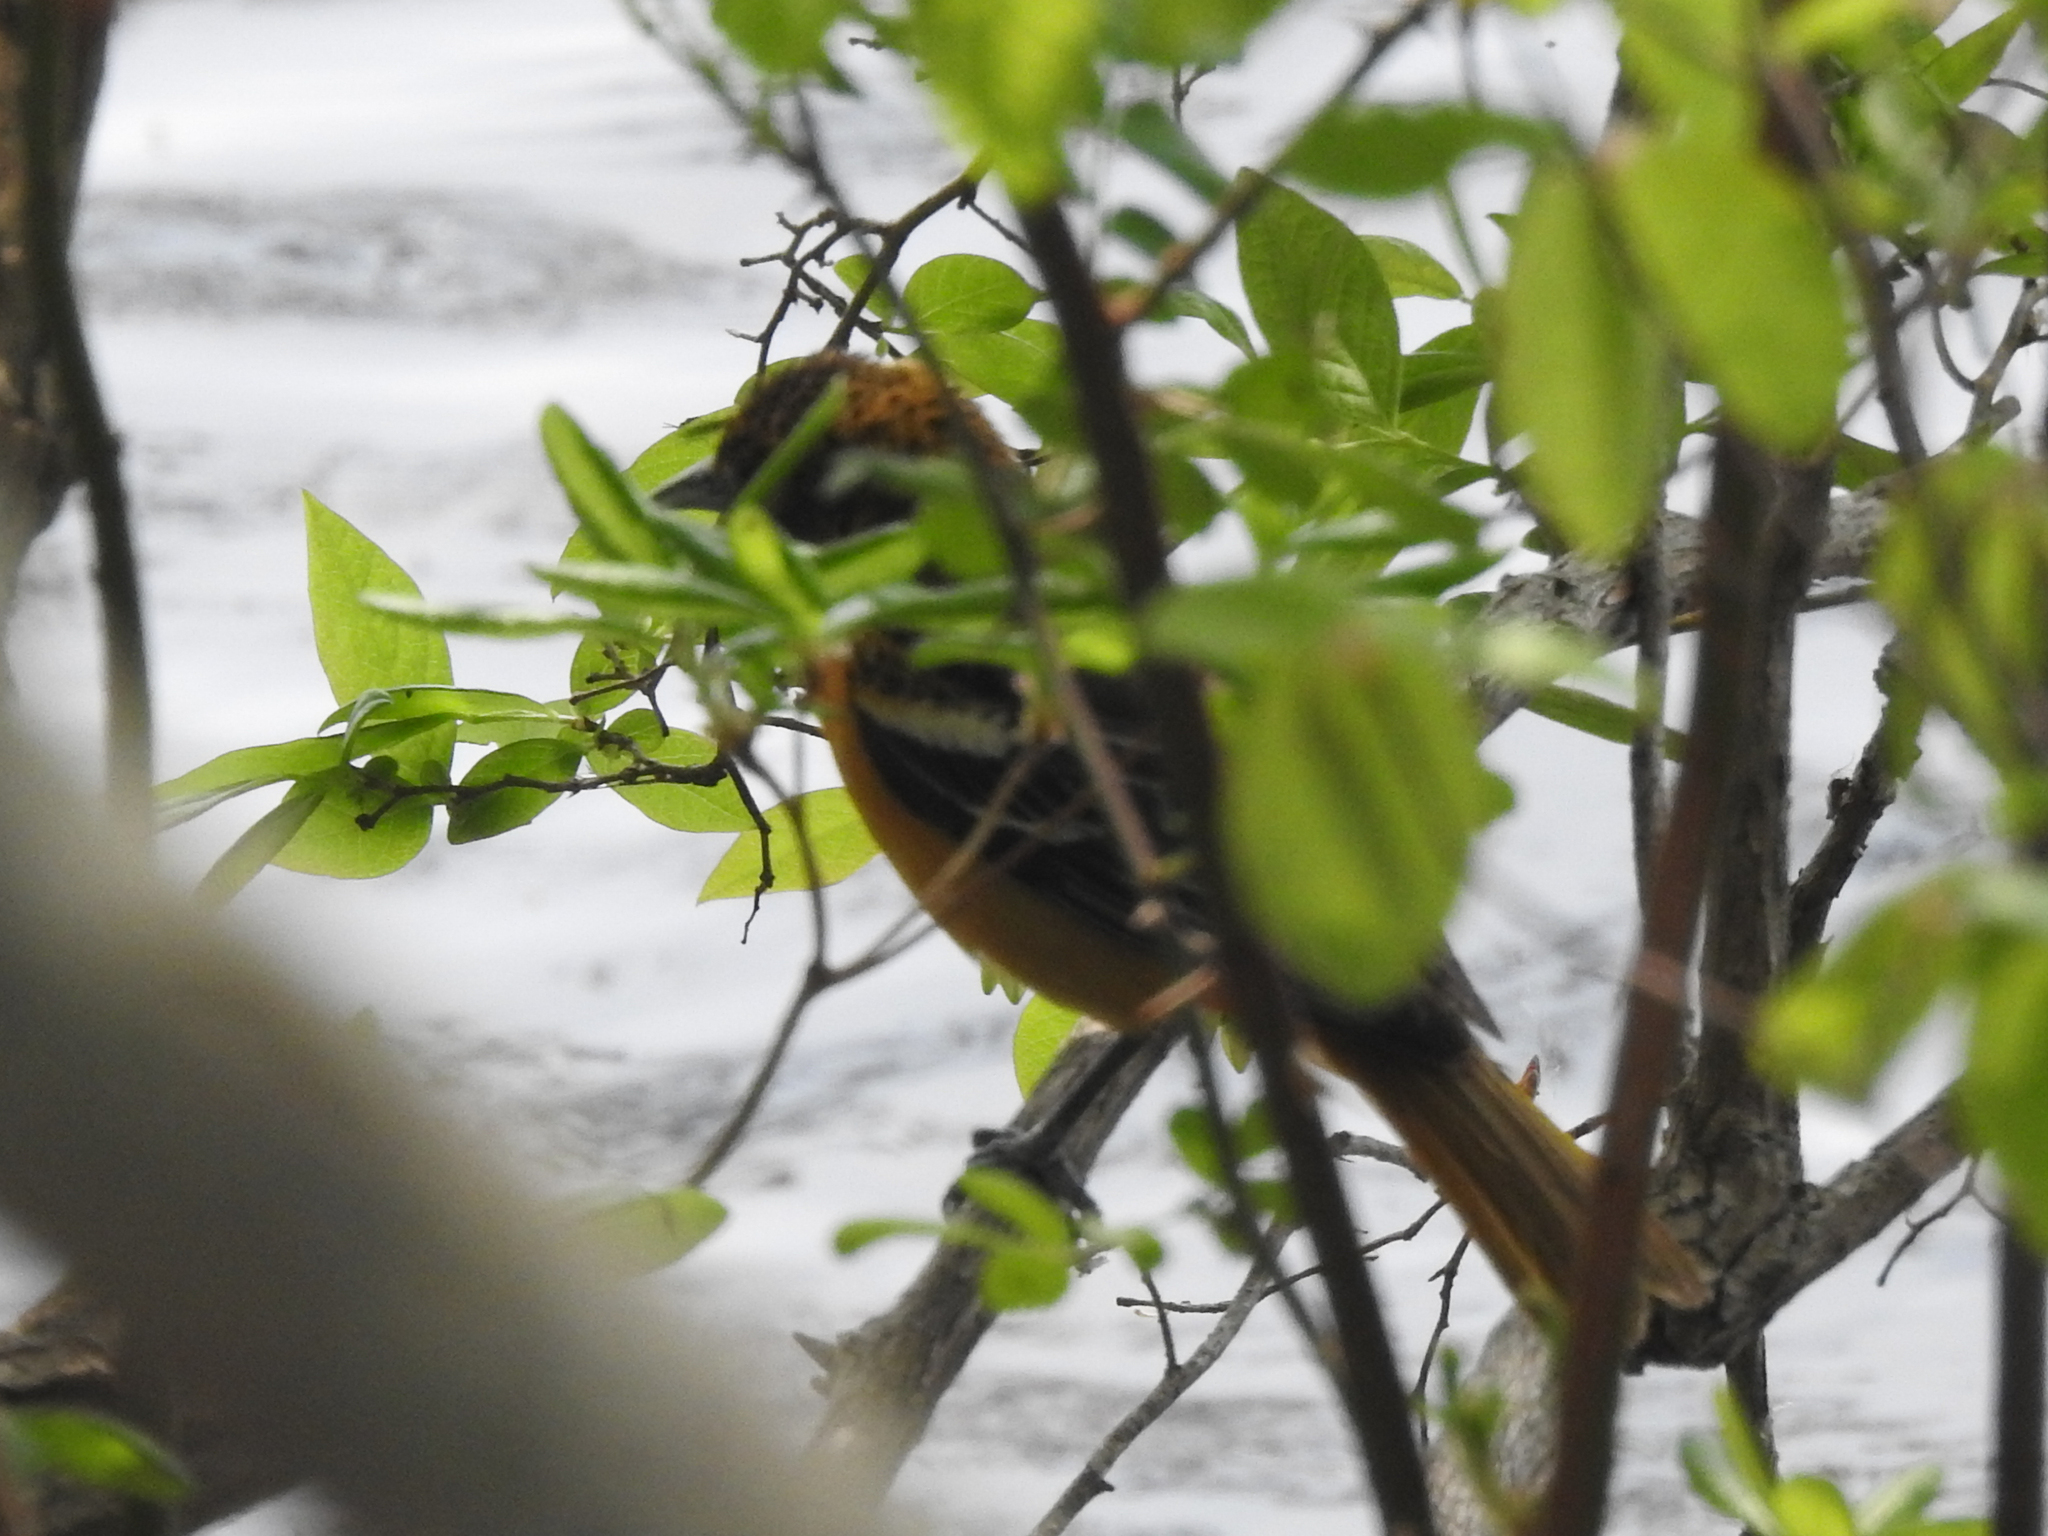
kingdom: Animalia
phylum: Chordata
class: Aves
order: Passeriformes
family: Icteridae
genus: Icterus
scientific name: Icterus galbula
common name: Baltimore oriole
